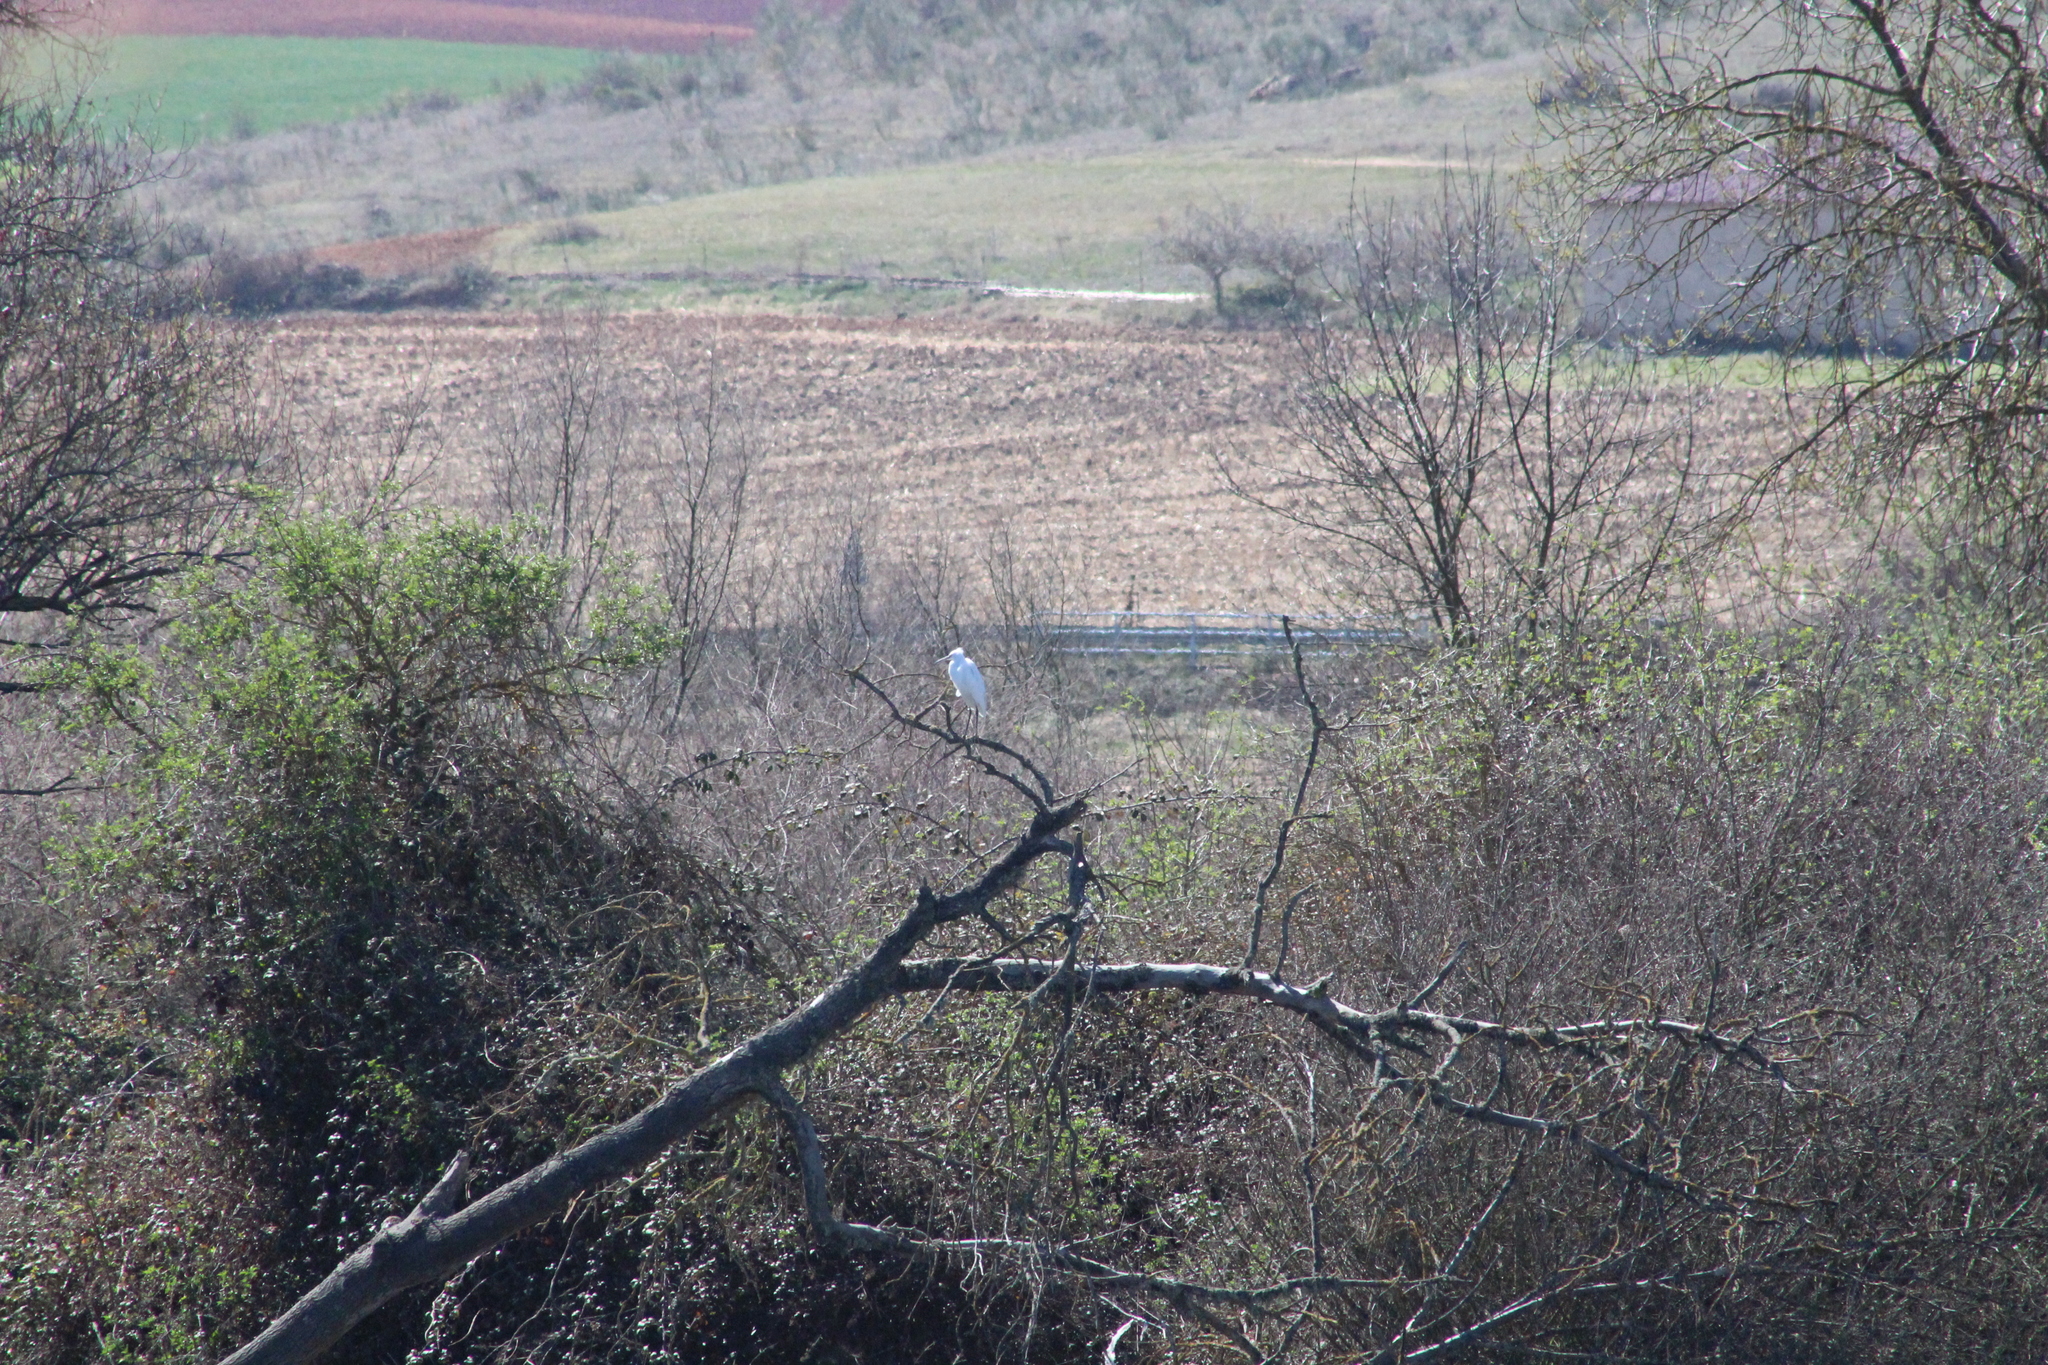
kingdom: Animalia
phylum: Chordata
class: Aves
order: Pelecaniformes
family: Ardeidae
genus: Egretta
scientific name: Egretta garzetta
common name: Little egret
